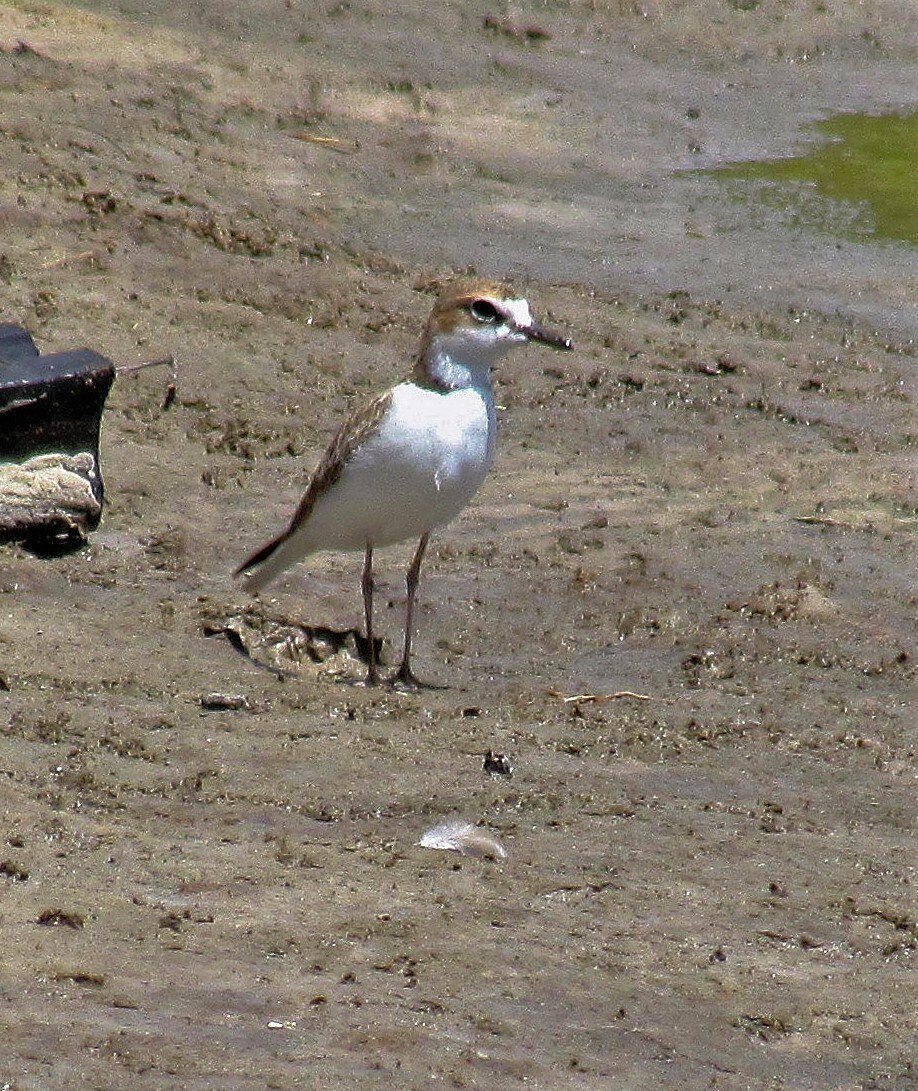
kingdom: Animalia
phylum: Chordata
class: Aves
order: Charadriiformes
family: Charadriidae
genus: Anarhynchus
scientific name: Anarhynchus
